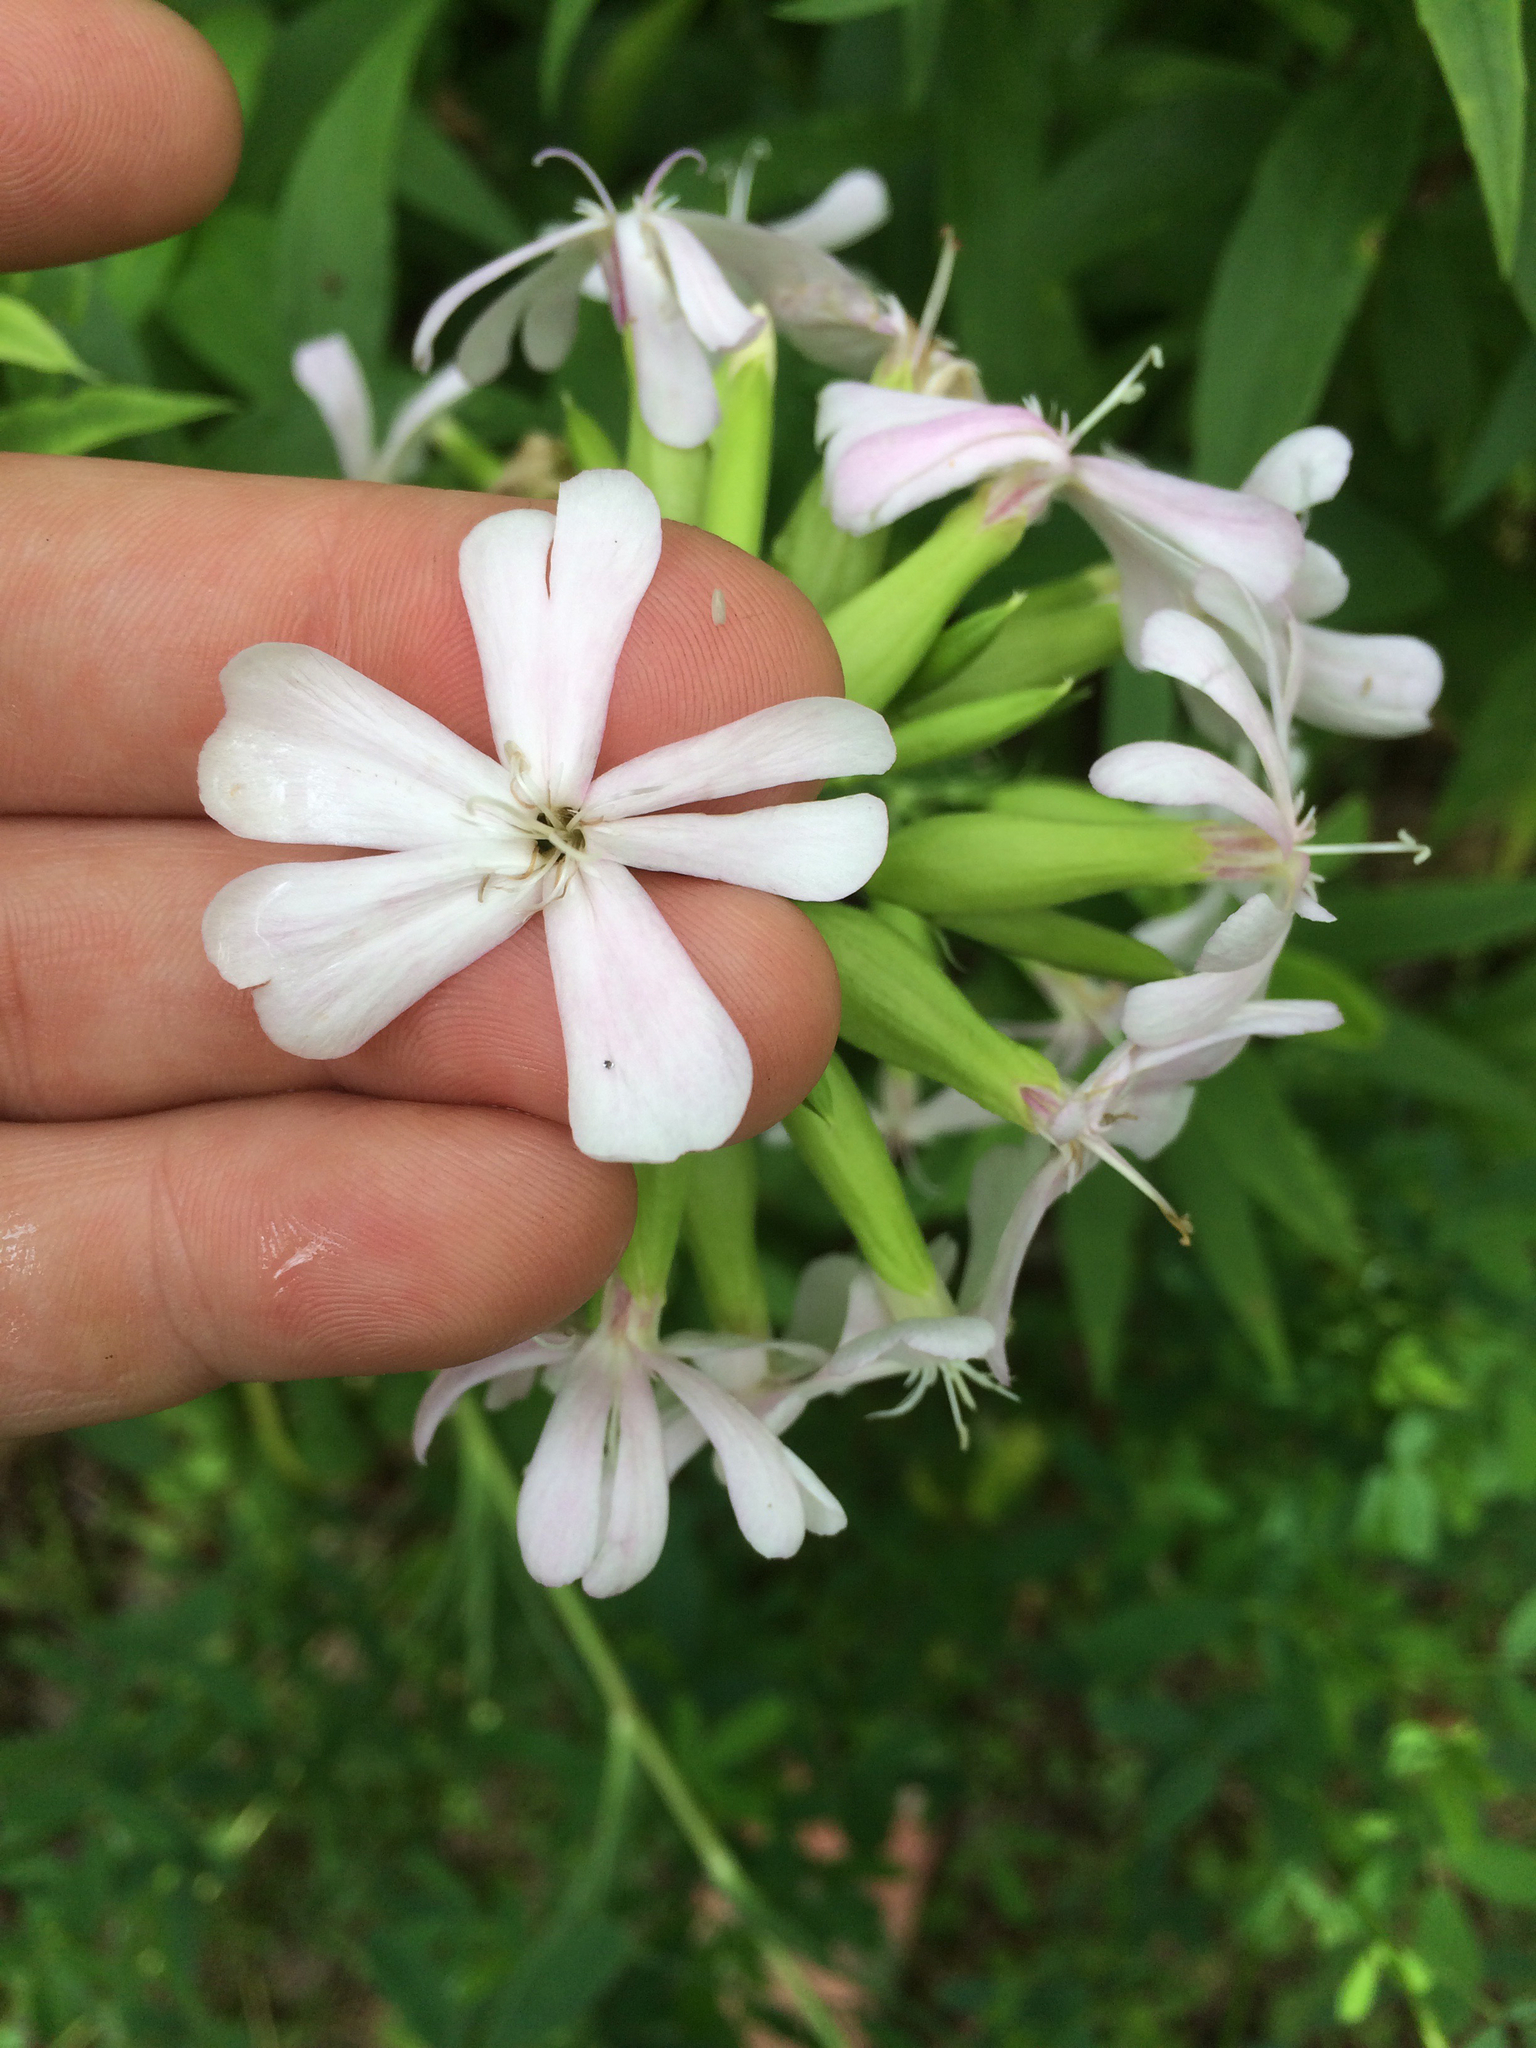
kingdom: Plantae
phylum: Tracheophyta
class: Magnoliopsida
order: Caryophyllales
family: Caryophyllaceae
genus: Saponaria
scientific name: Saponaria officinalis
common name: Soapwort
